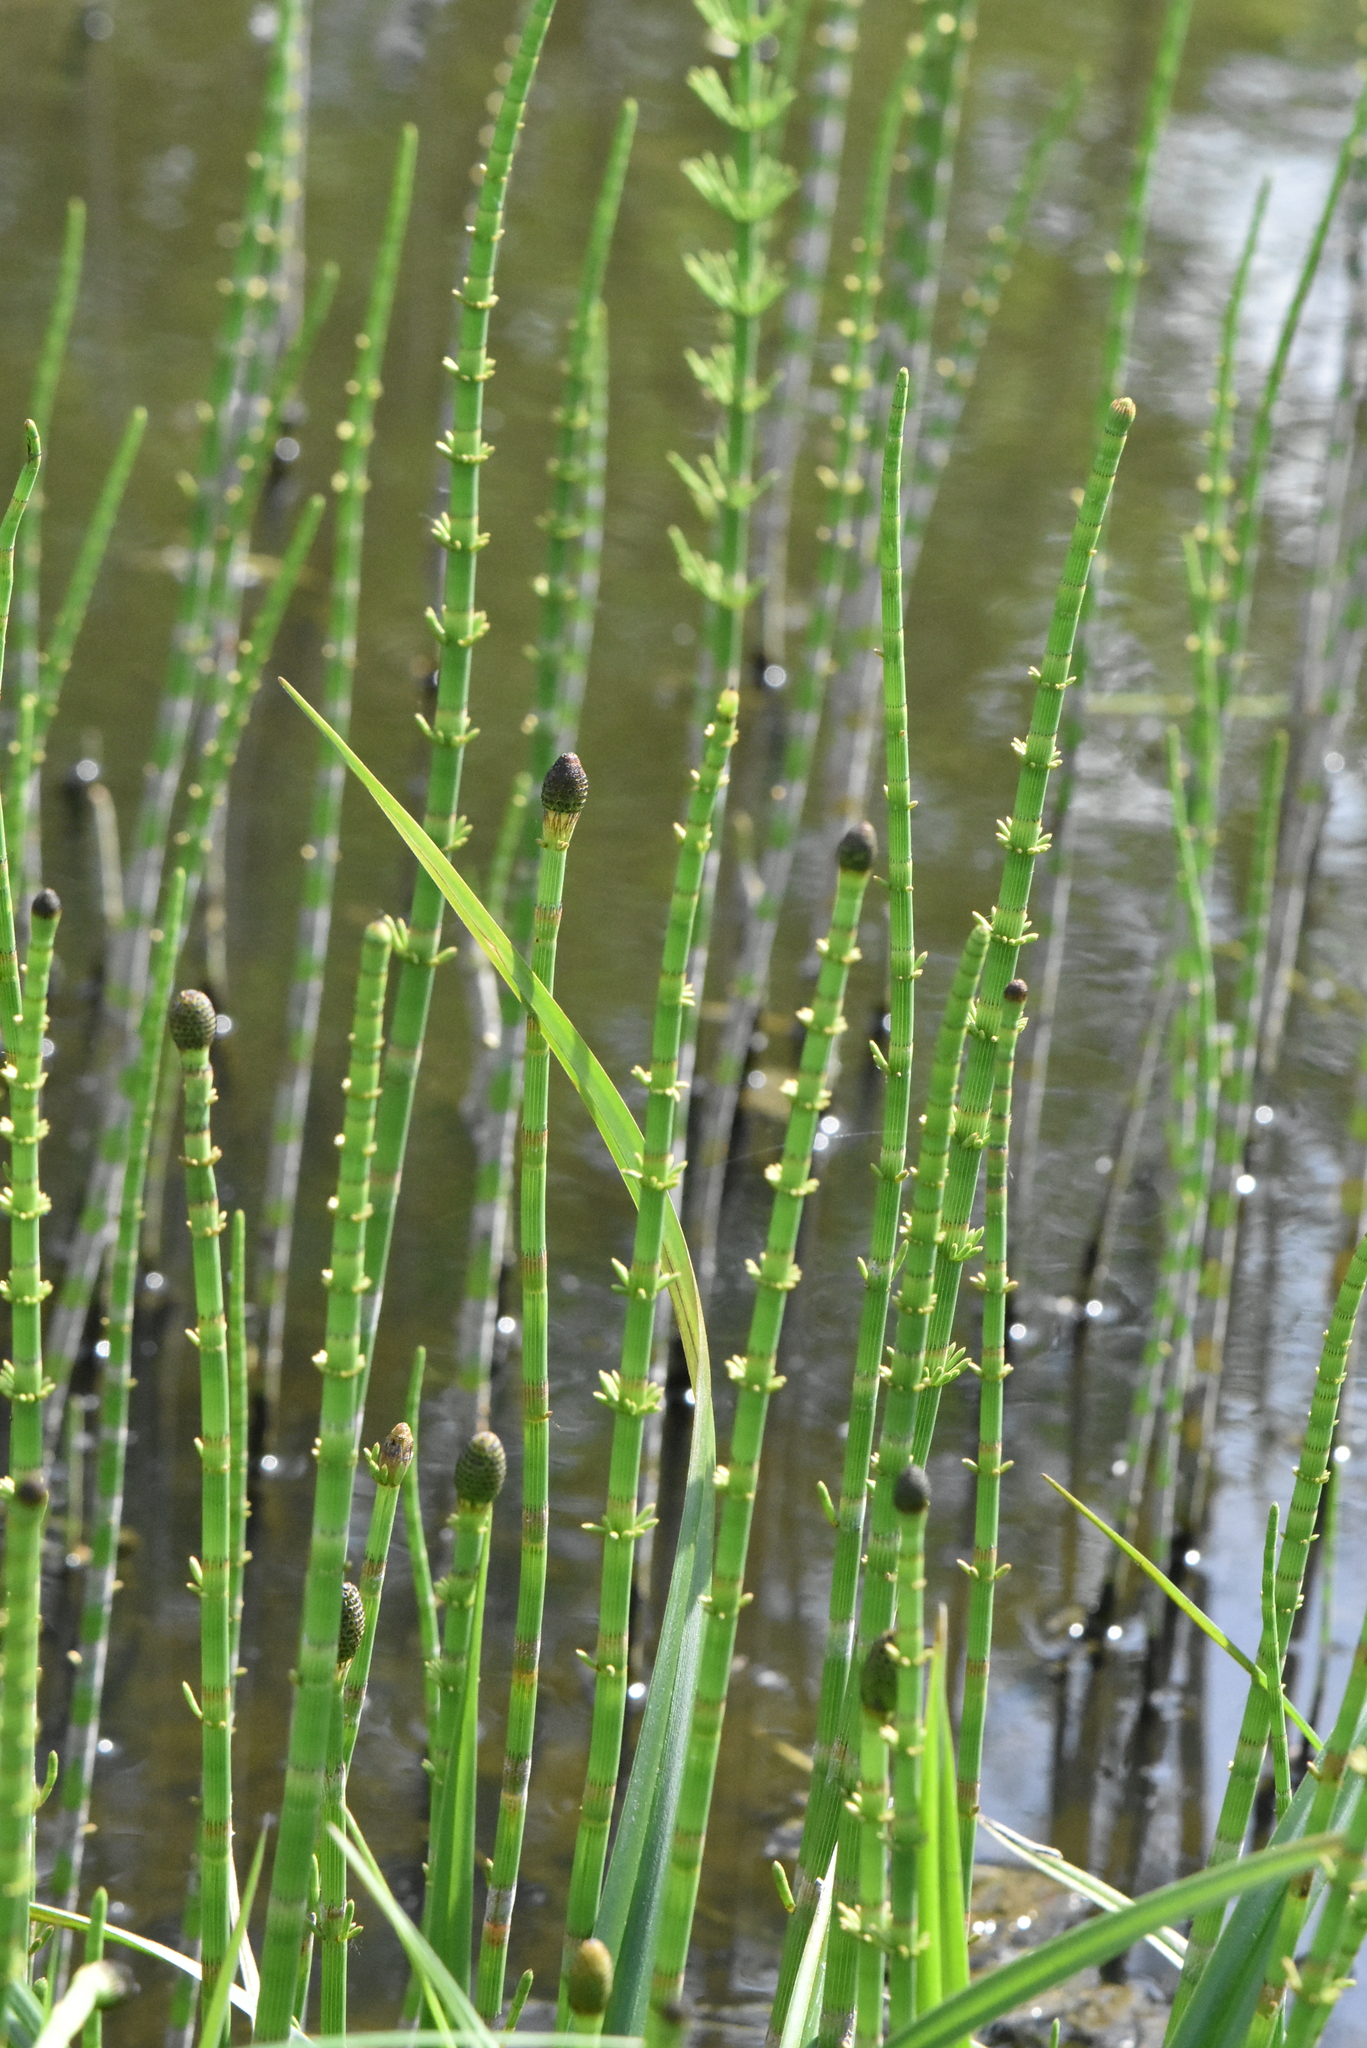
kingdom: Plantae
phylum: Tracheophyta
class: Polypodiopsida
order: Equisetales
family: Equisetaceae
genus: Equisetum
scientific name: Equisetum fluviatile
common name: Water horsetail
